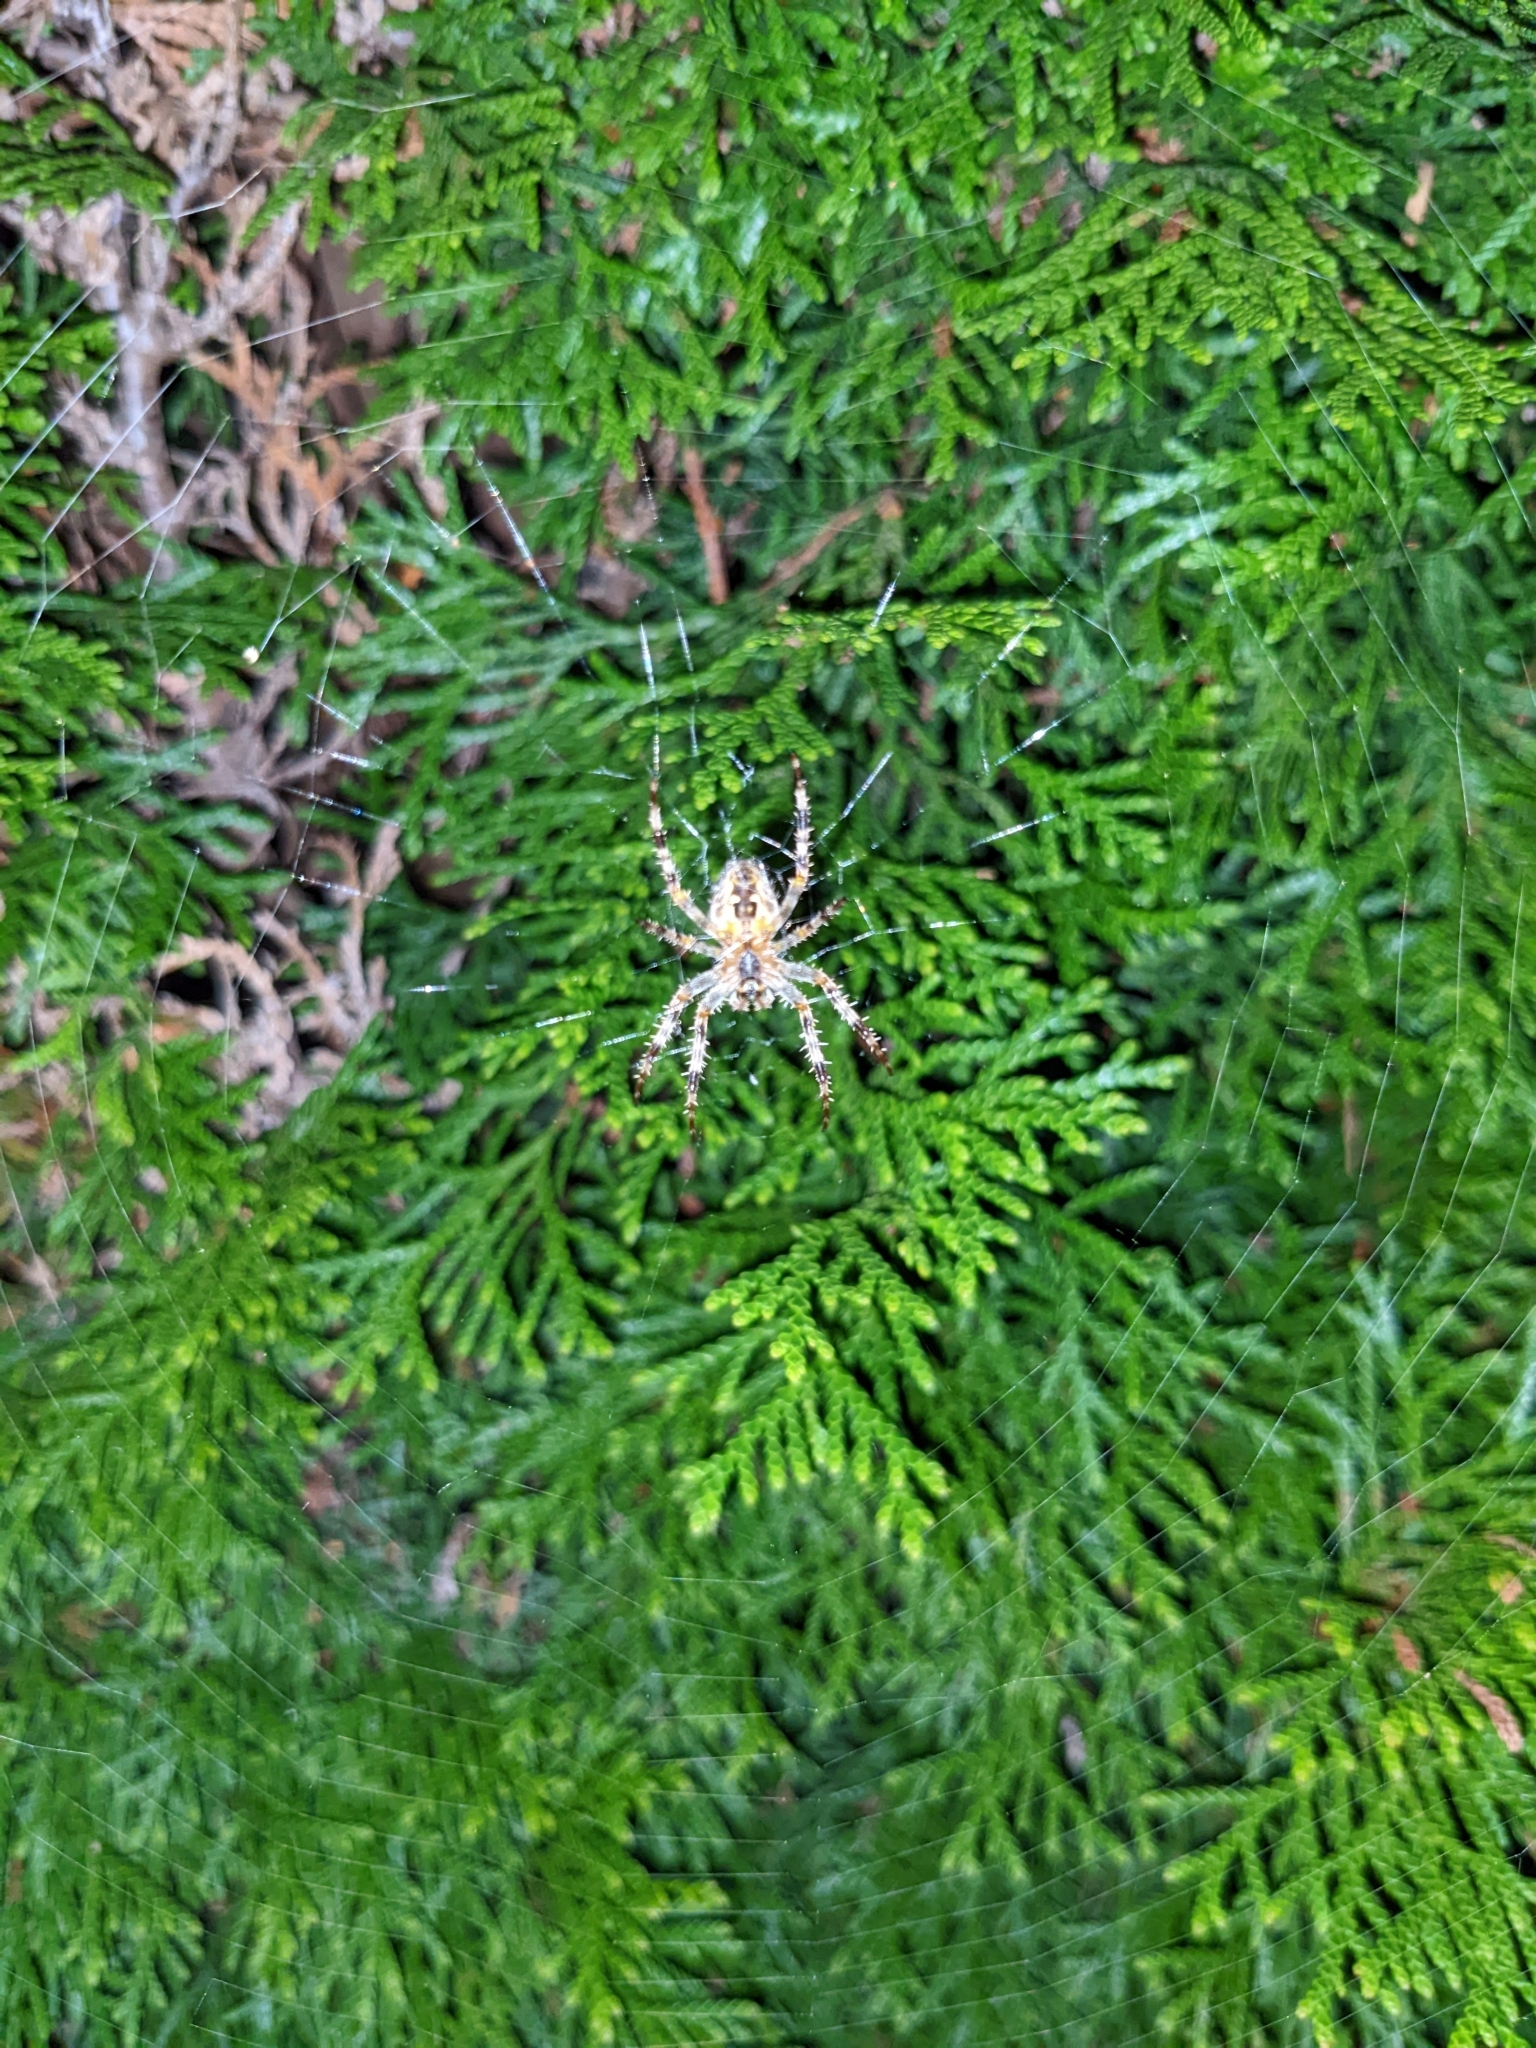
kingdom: Animalia
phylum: Arthropoda
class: Arachnida
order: Araneae
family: Araneidae
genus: Araneus
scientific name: Araneus diadematus
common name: Cross orbweaver
